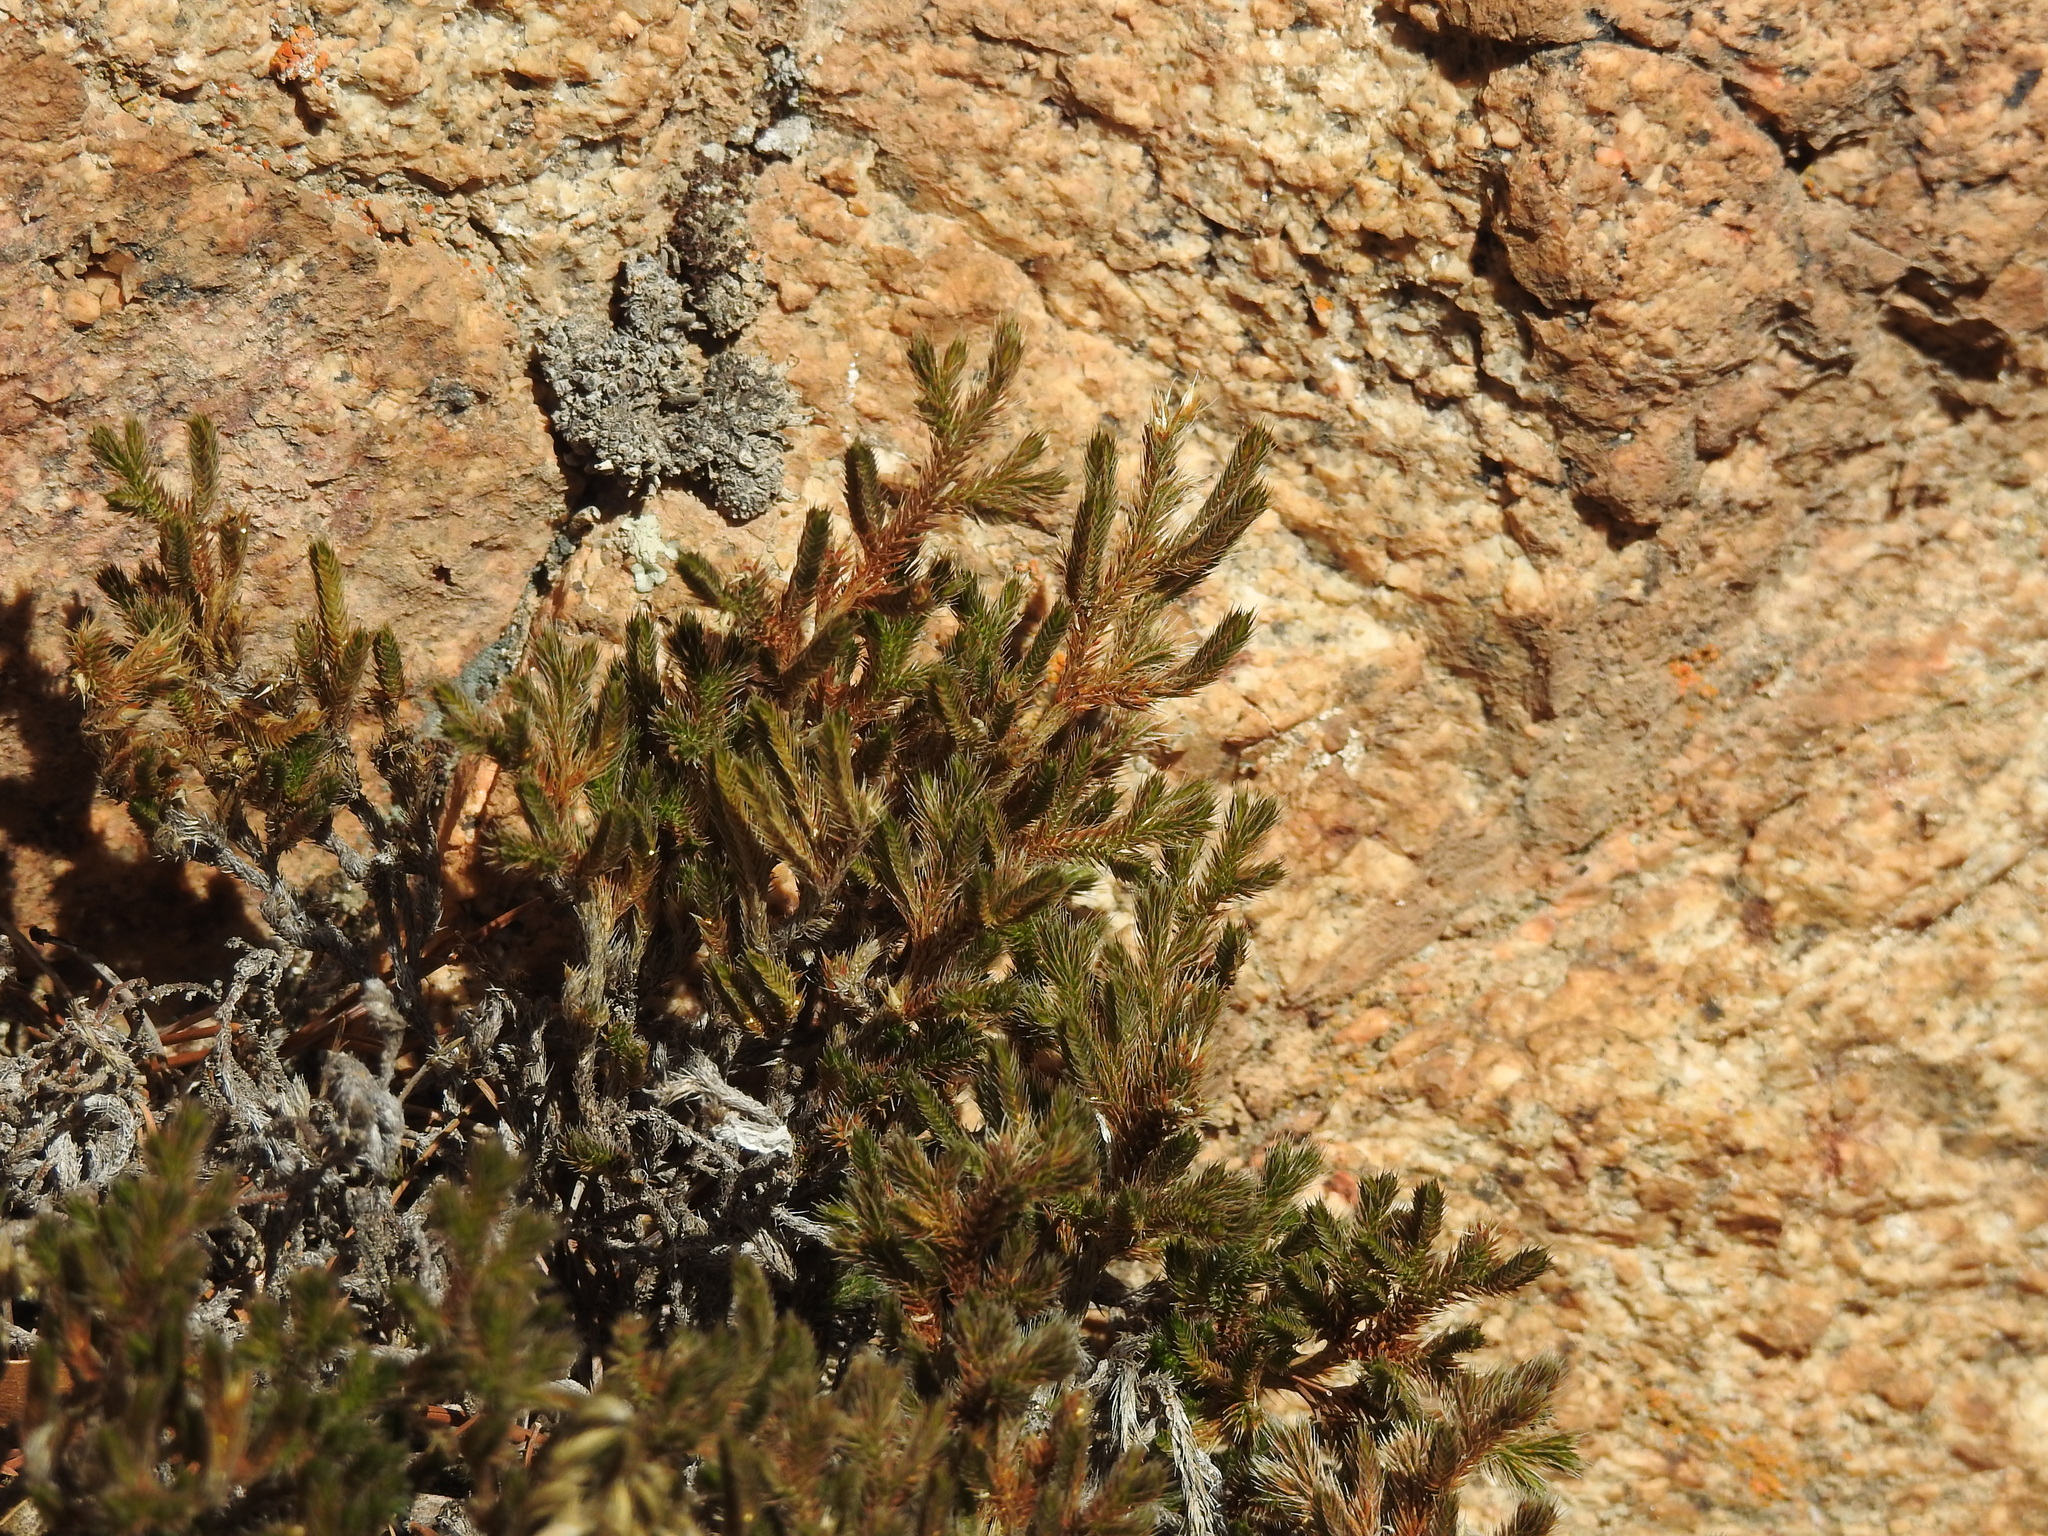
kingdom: Plantae
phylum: Tracheophyta
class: Lycopodiopsida
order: Selaginellales
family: Selaginellaceae
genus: Selaginella
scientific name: Selaginella rupincola
